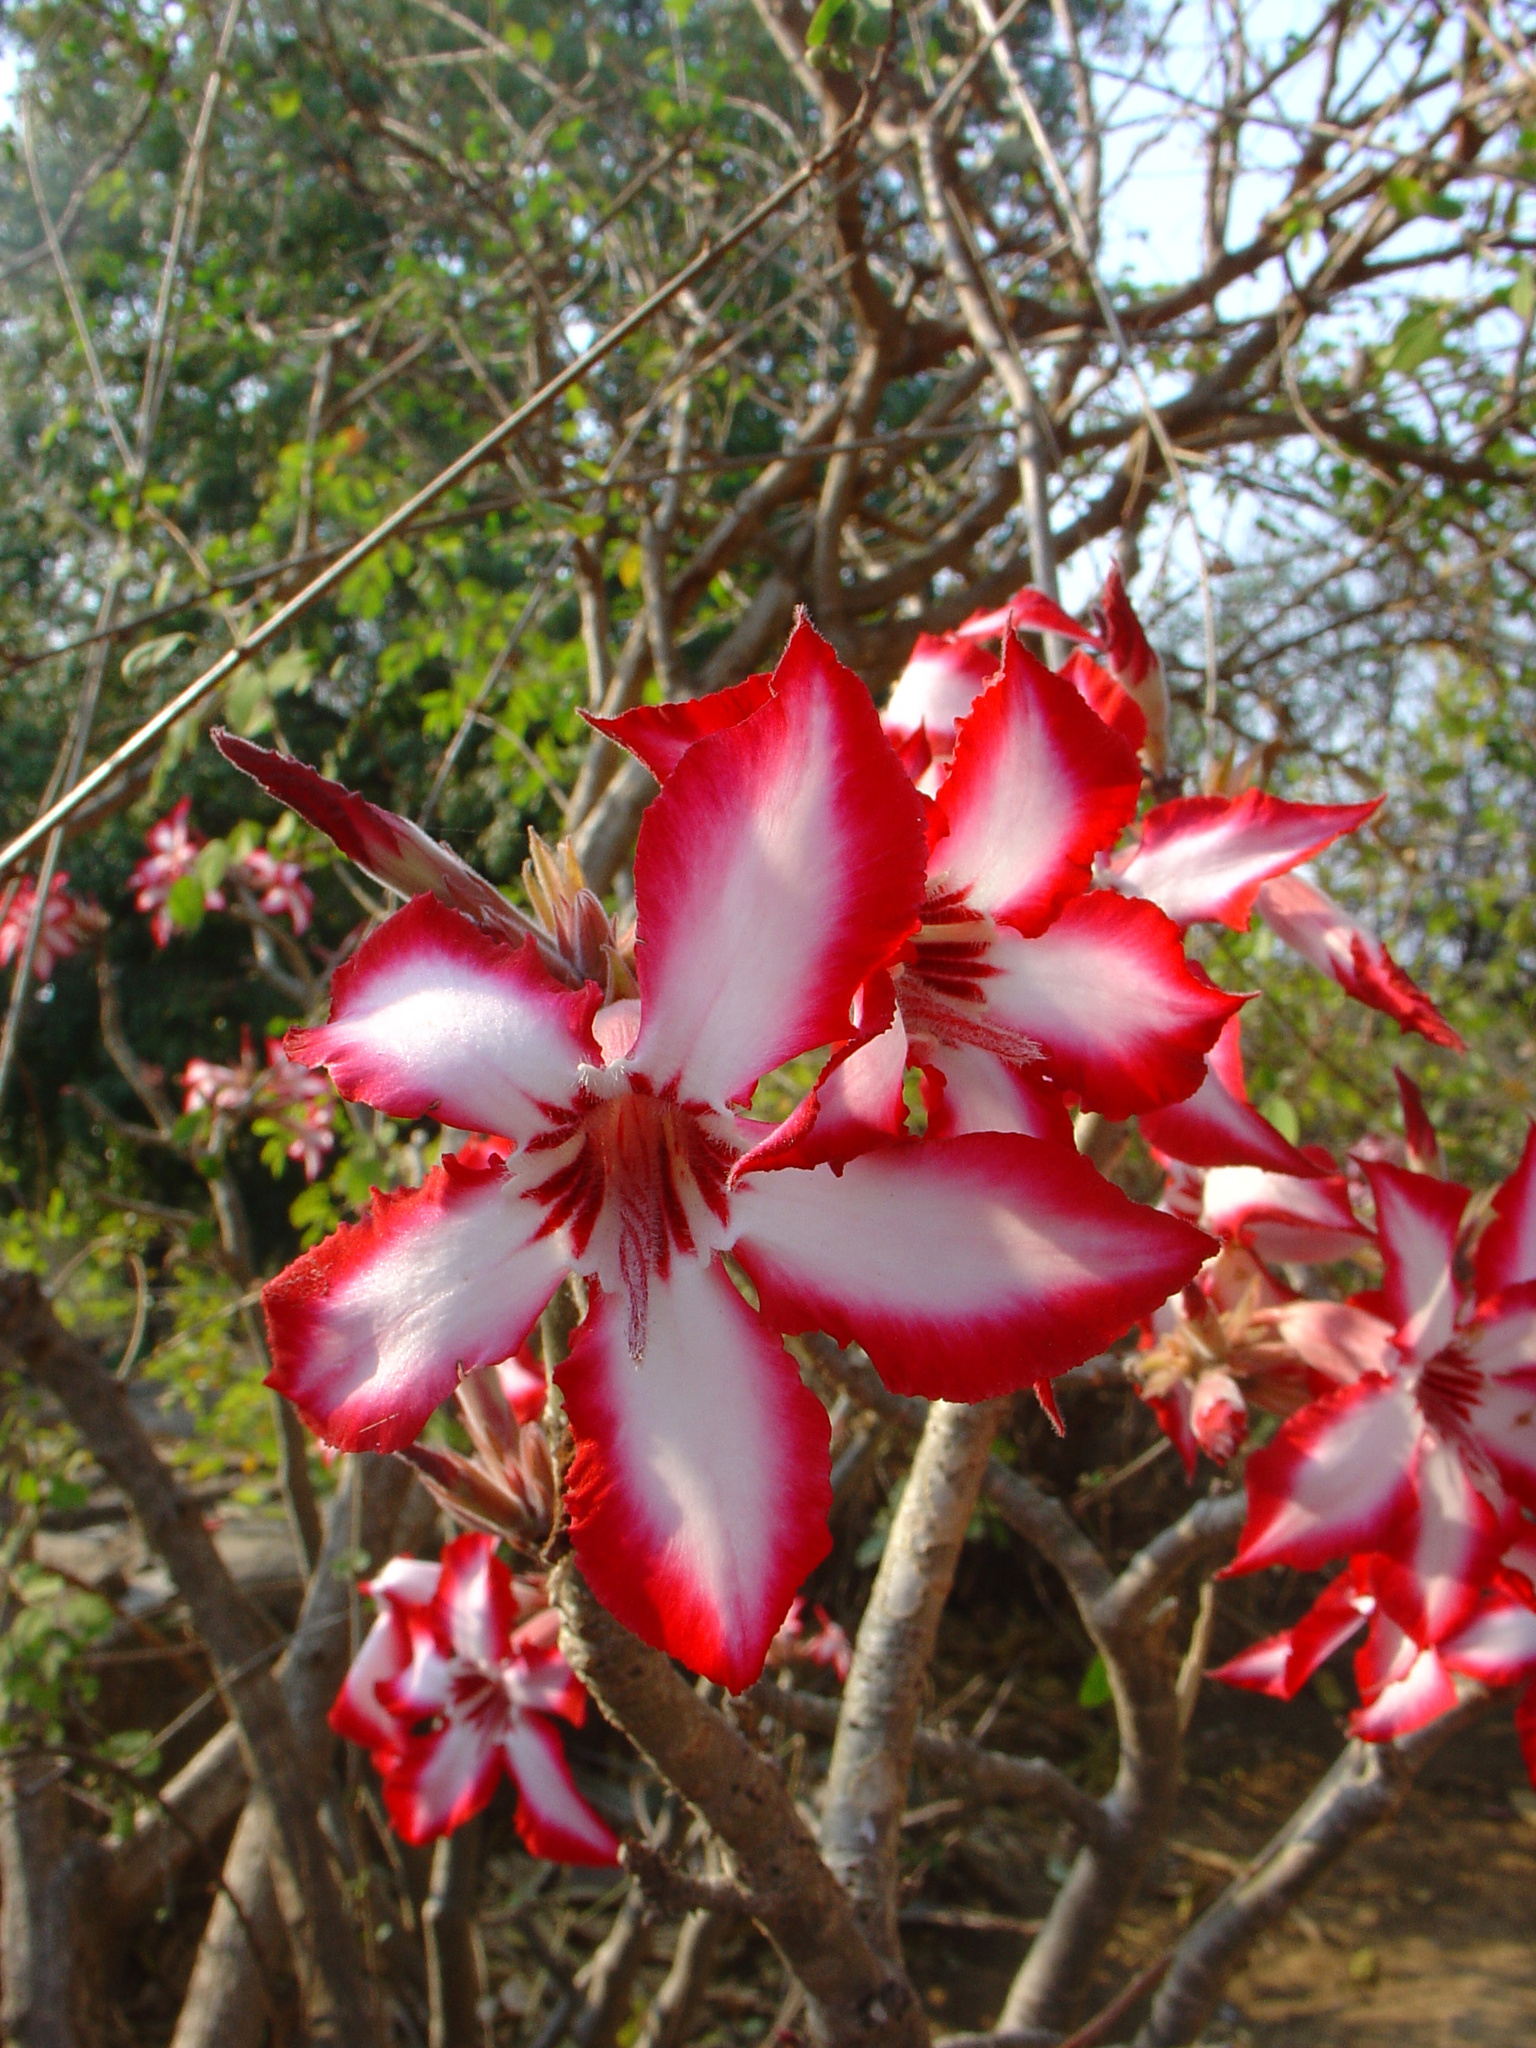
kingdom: Plantae
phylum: Tracheophyta
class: Magnoliopsida
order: Gentianales
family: Apocynaceae
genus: Adenium
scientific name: Adenium obesum
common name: Desert-rose
